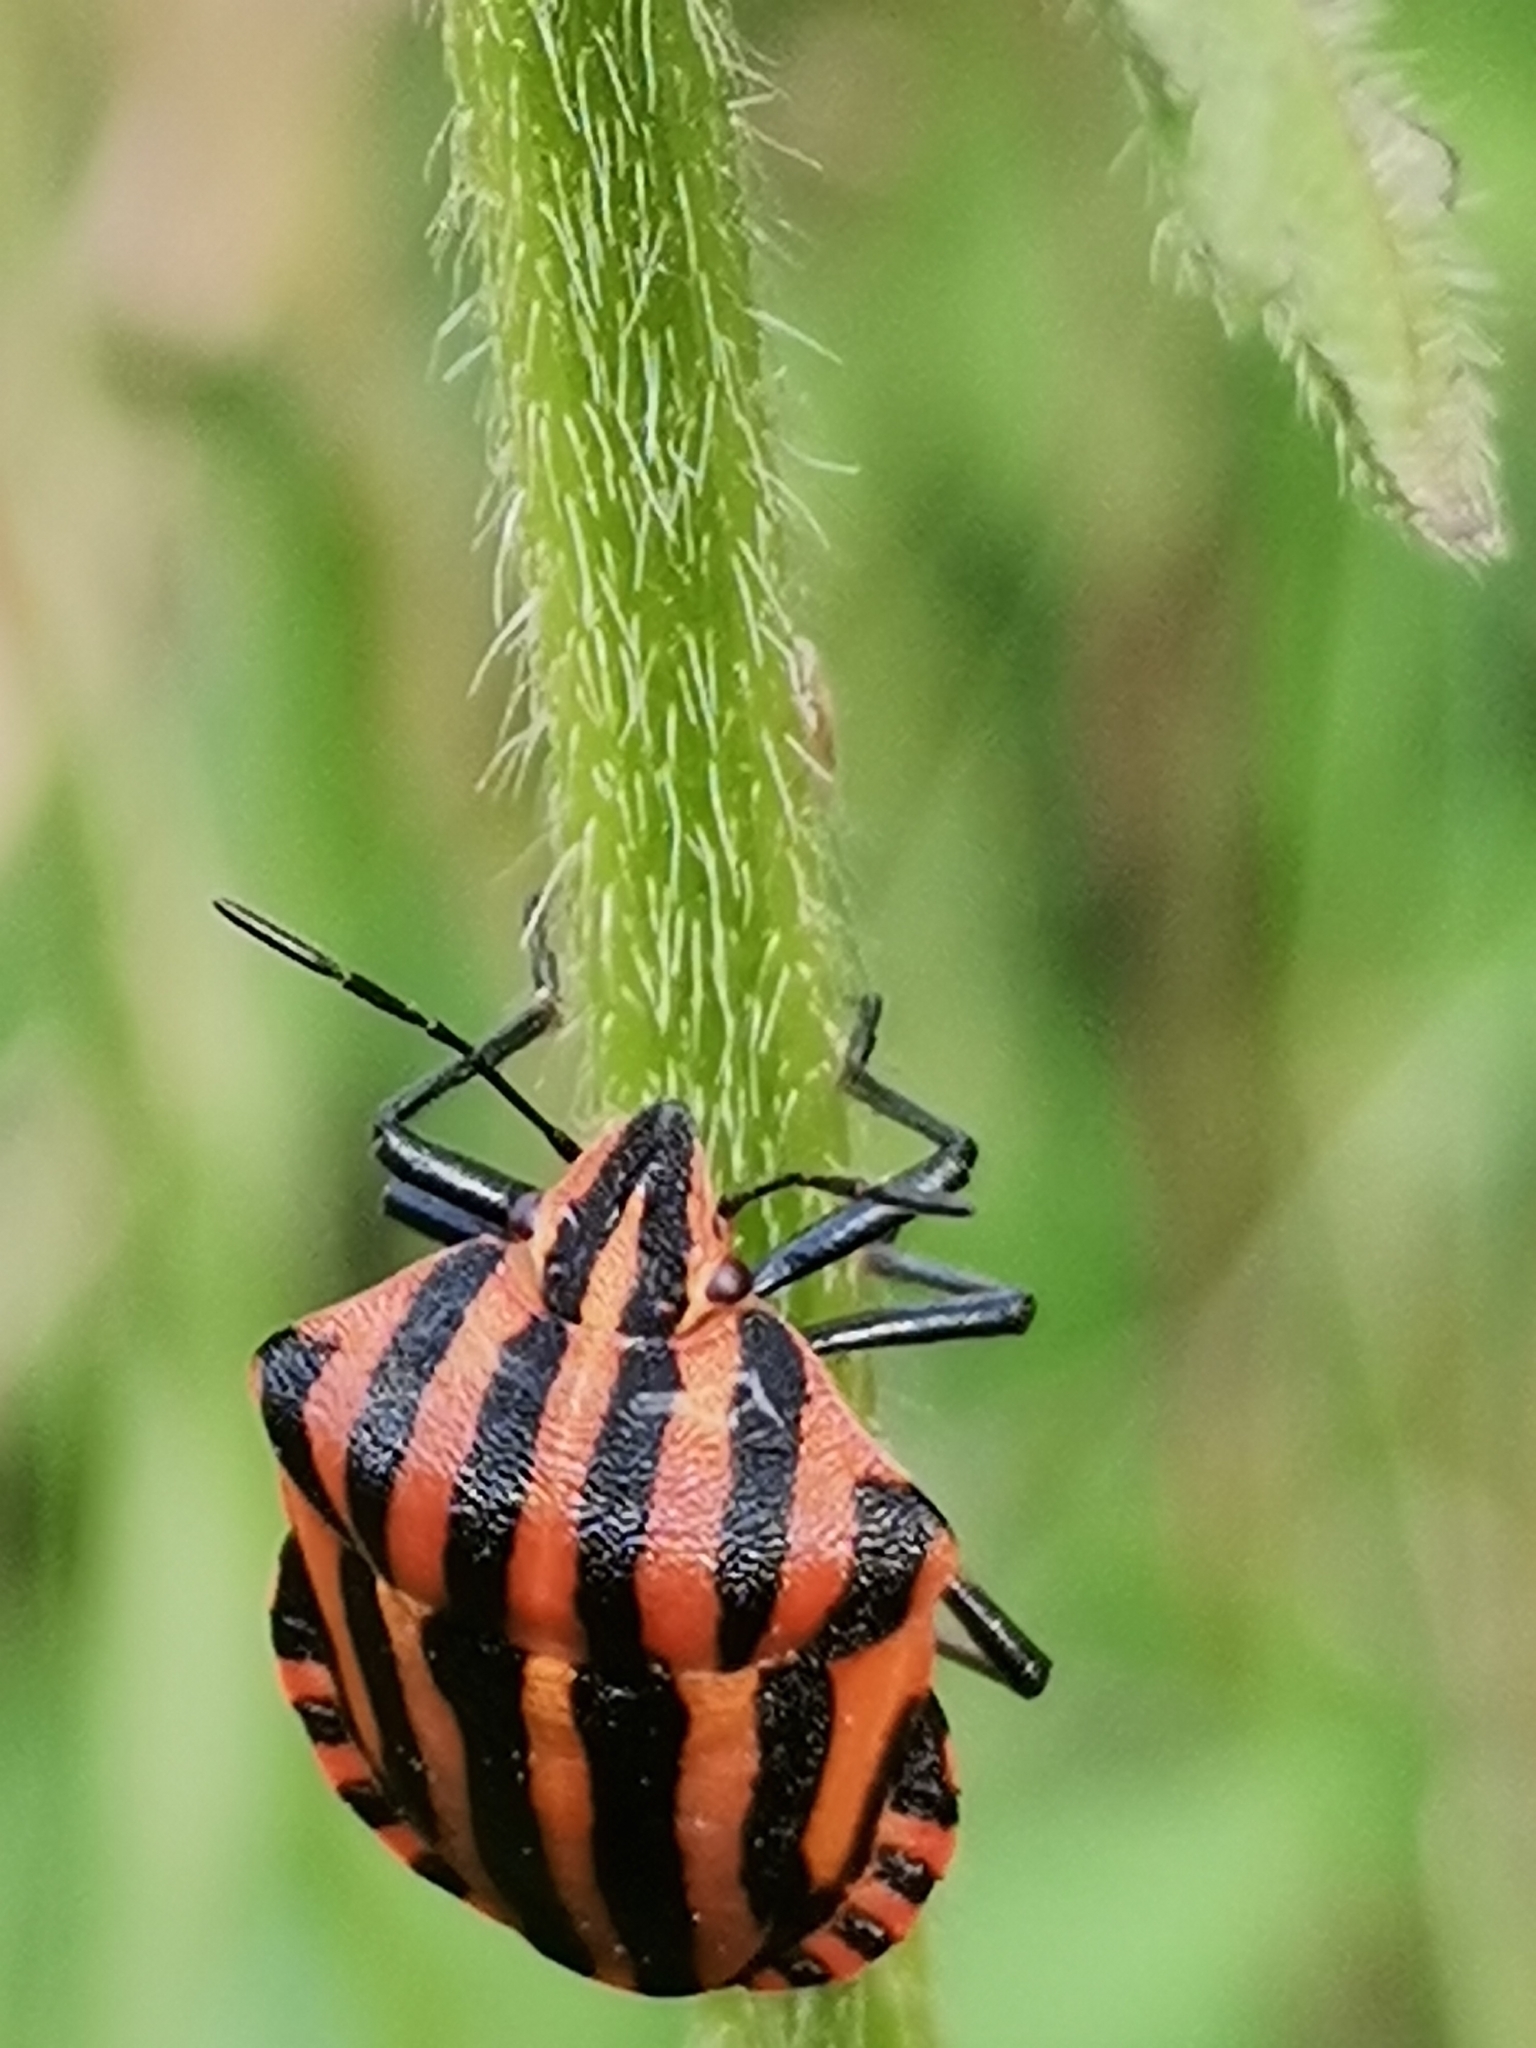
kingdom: Animalia
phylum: Arthropoda
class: Insecta
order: Hemiptera
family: Pentatomidae
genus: Graphosoma
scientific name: Graphosoma italicum
